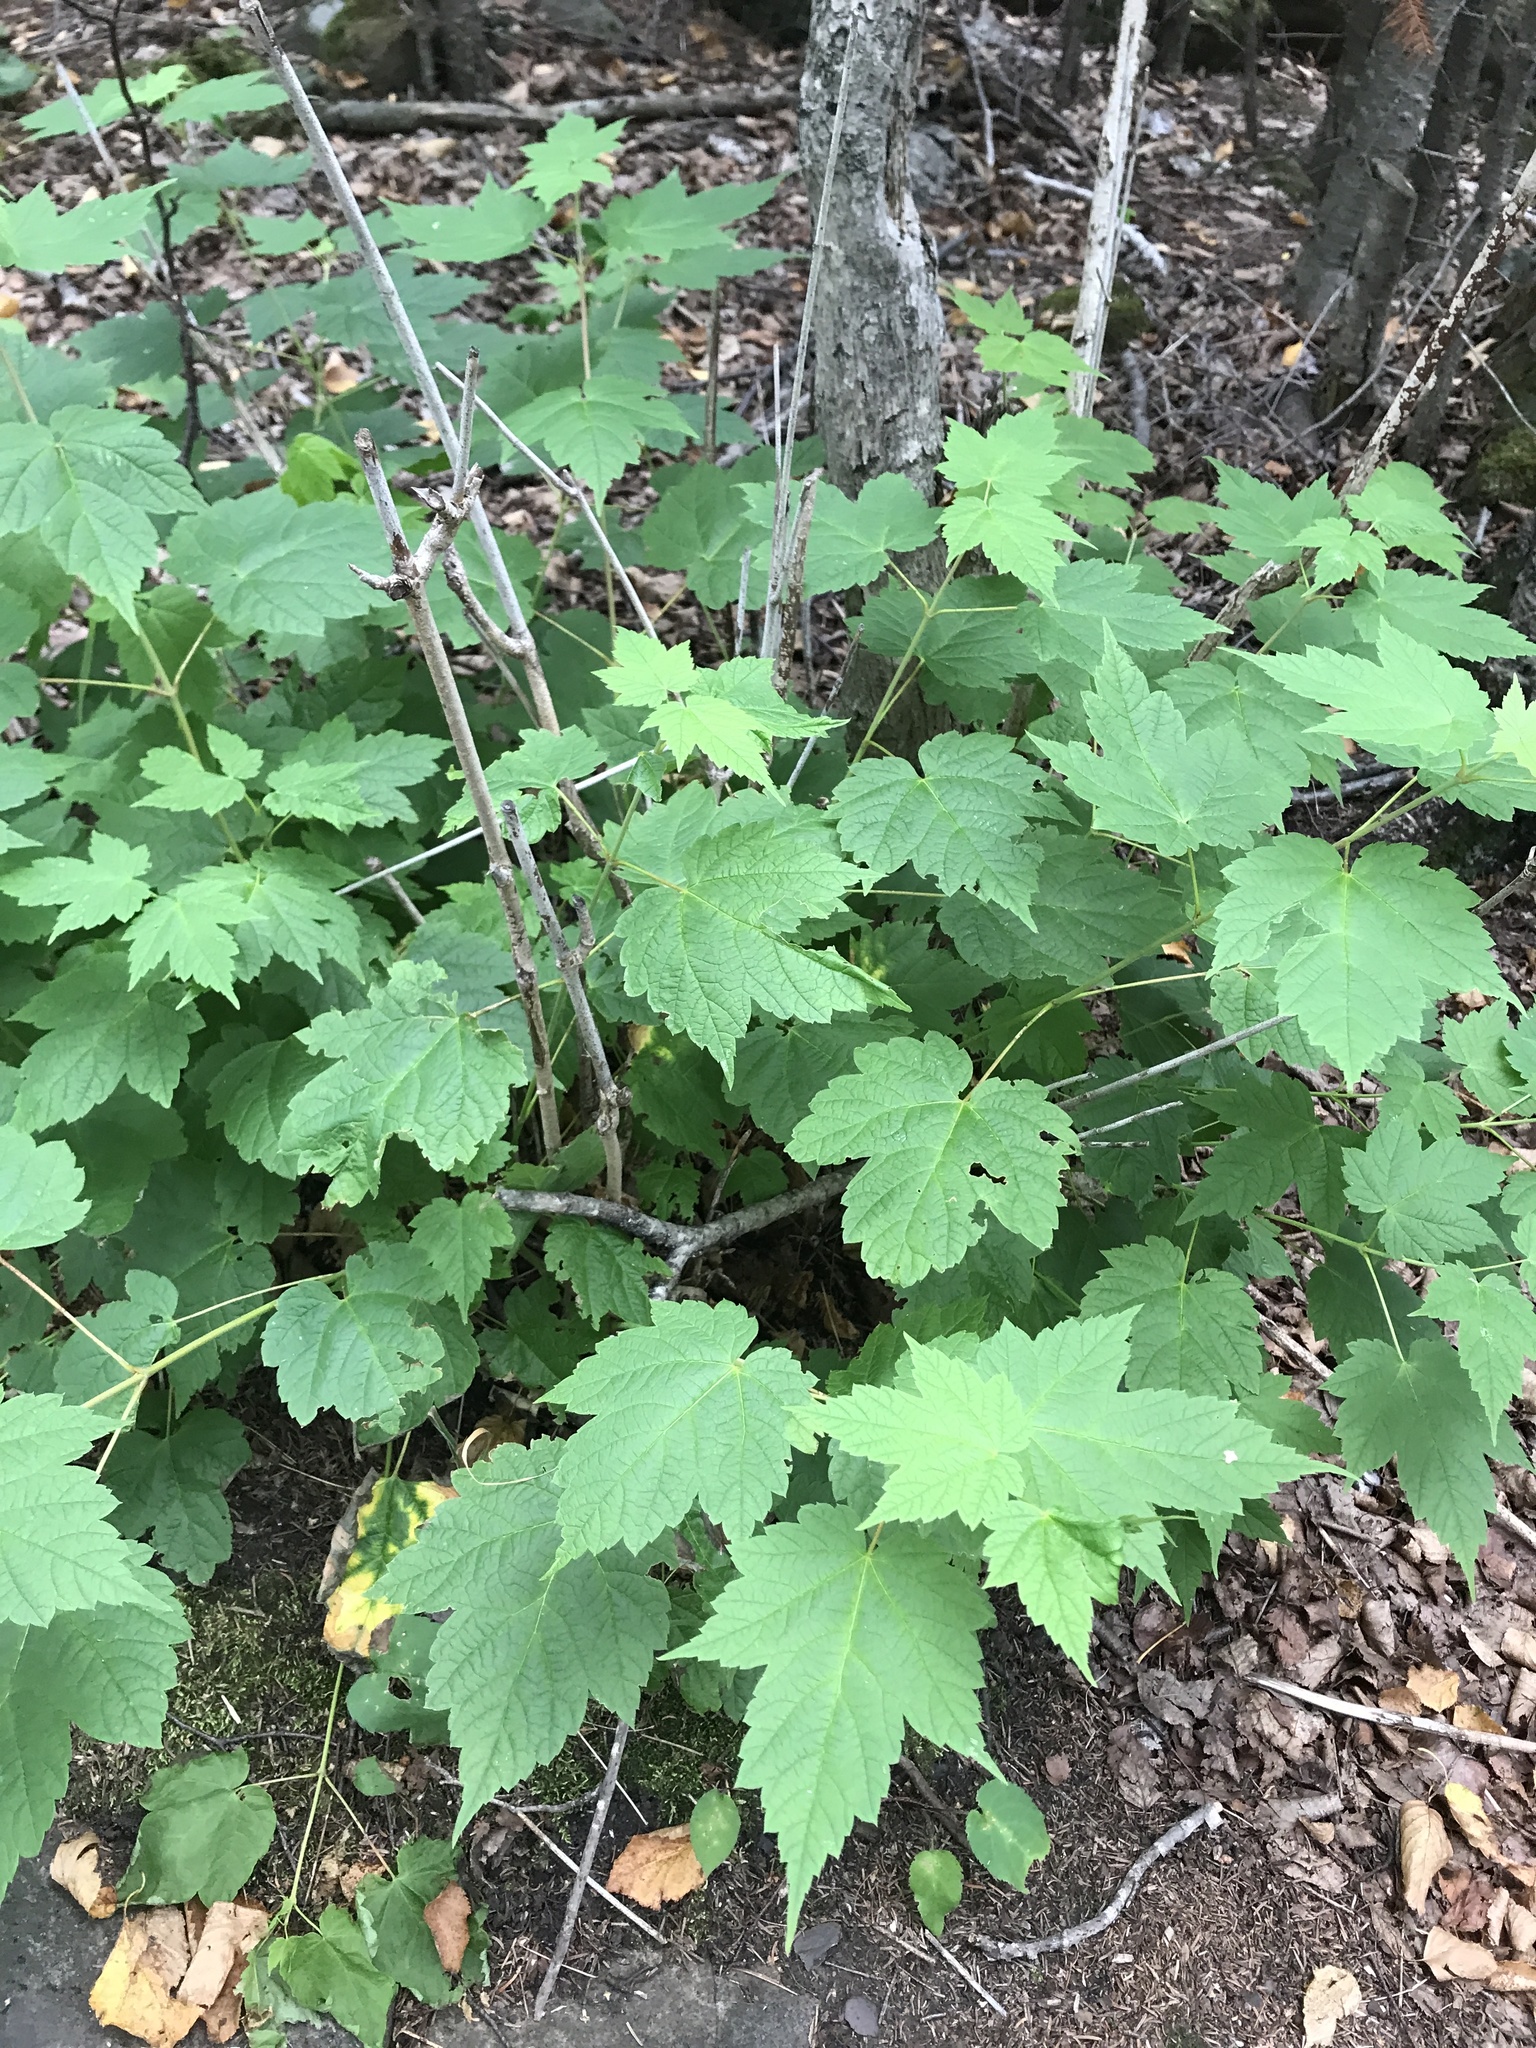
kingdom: Plantae
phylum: Tracheophyta
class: Magnoliopsida
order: Sapindales
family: Sapindaceae
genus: Acer
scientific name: Acer spicatum
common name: Mountain maple
